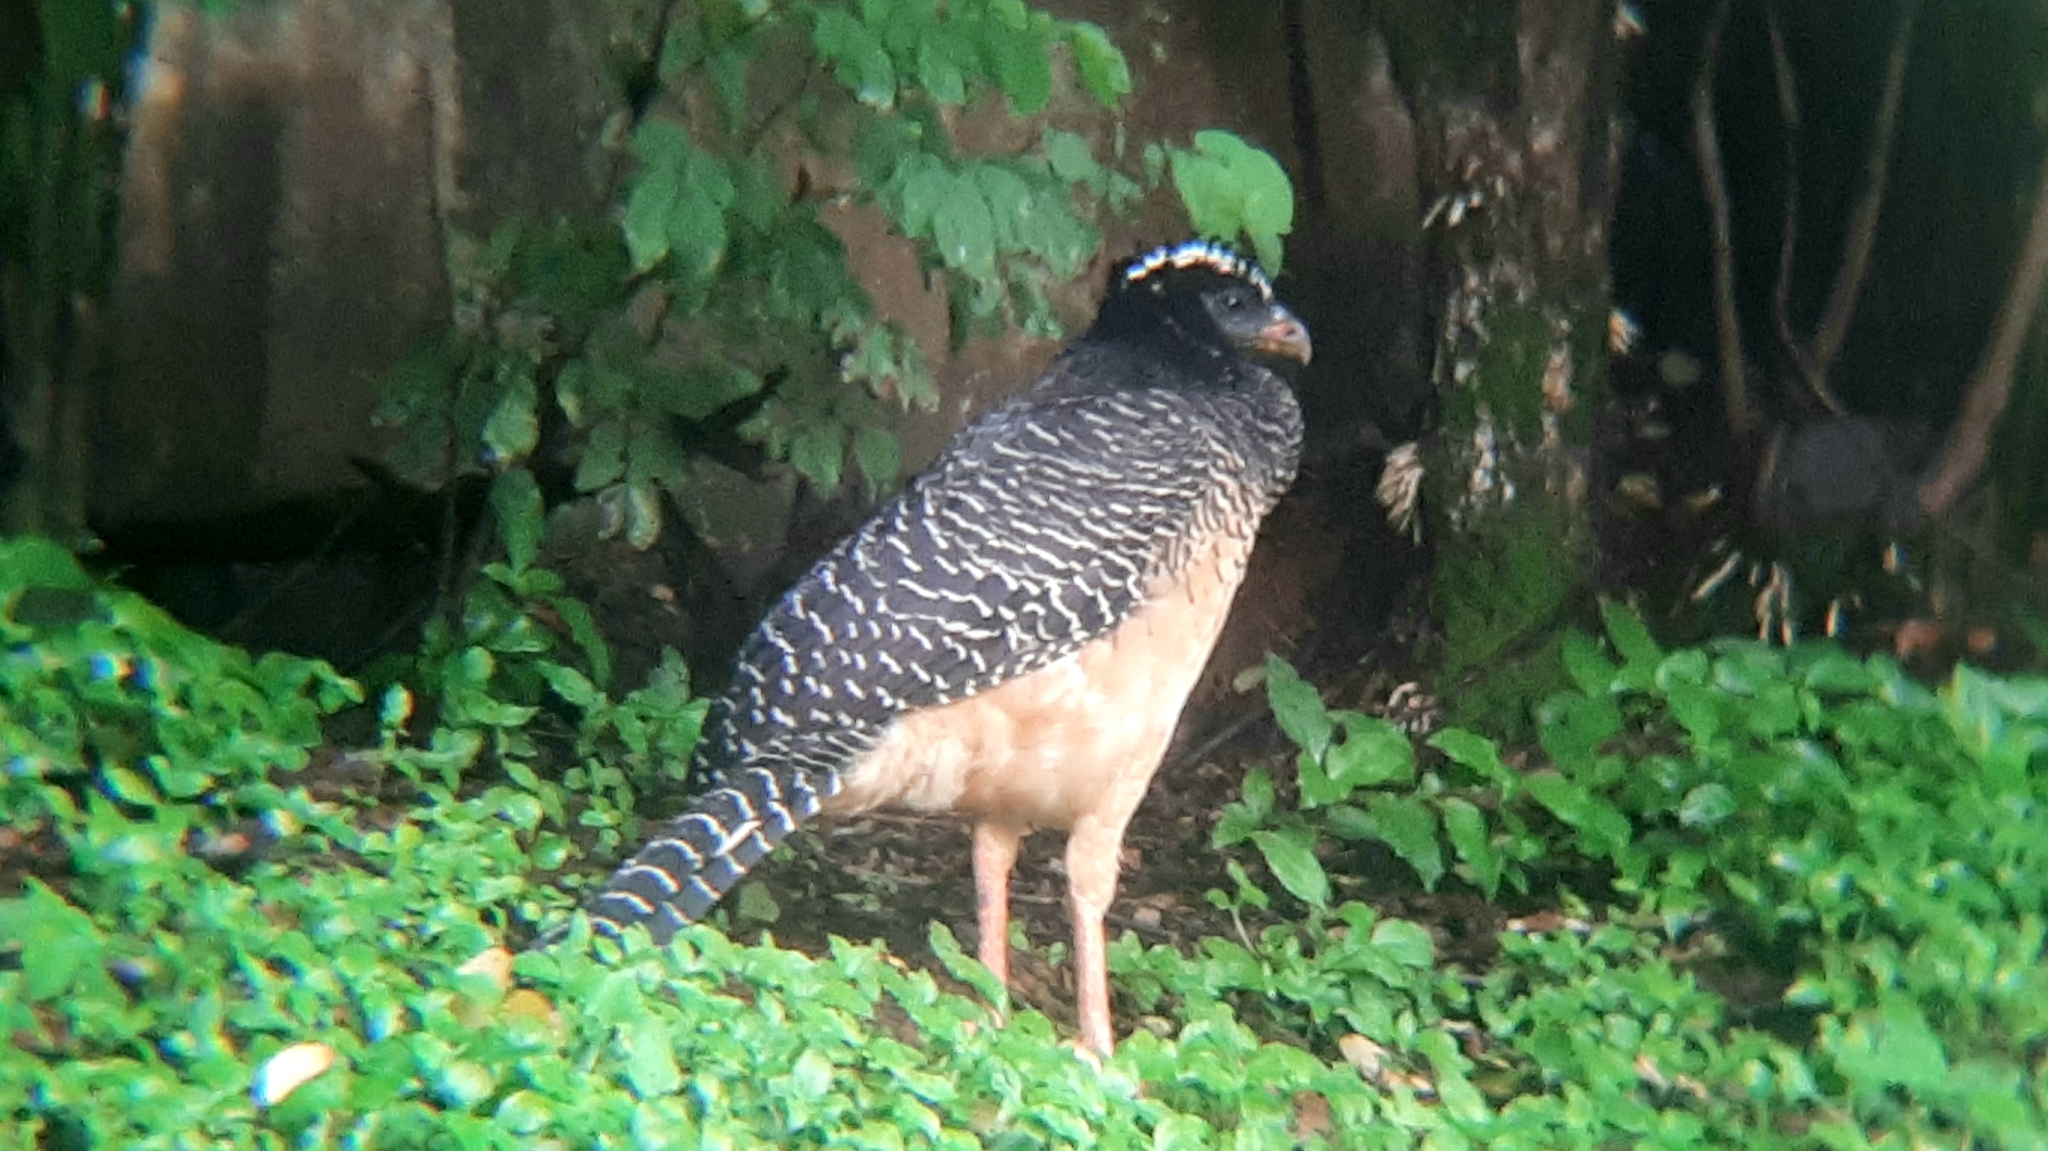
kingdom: Animalia
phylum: Chordata
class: Aves
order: Galliformes
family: Cracidae
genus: Crax
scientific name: Crax fasciolata
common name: Bare-faced curassow
